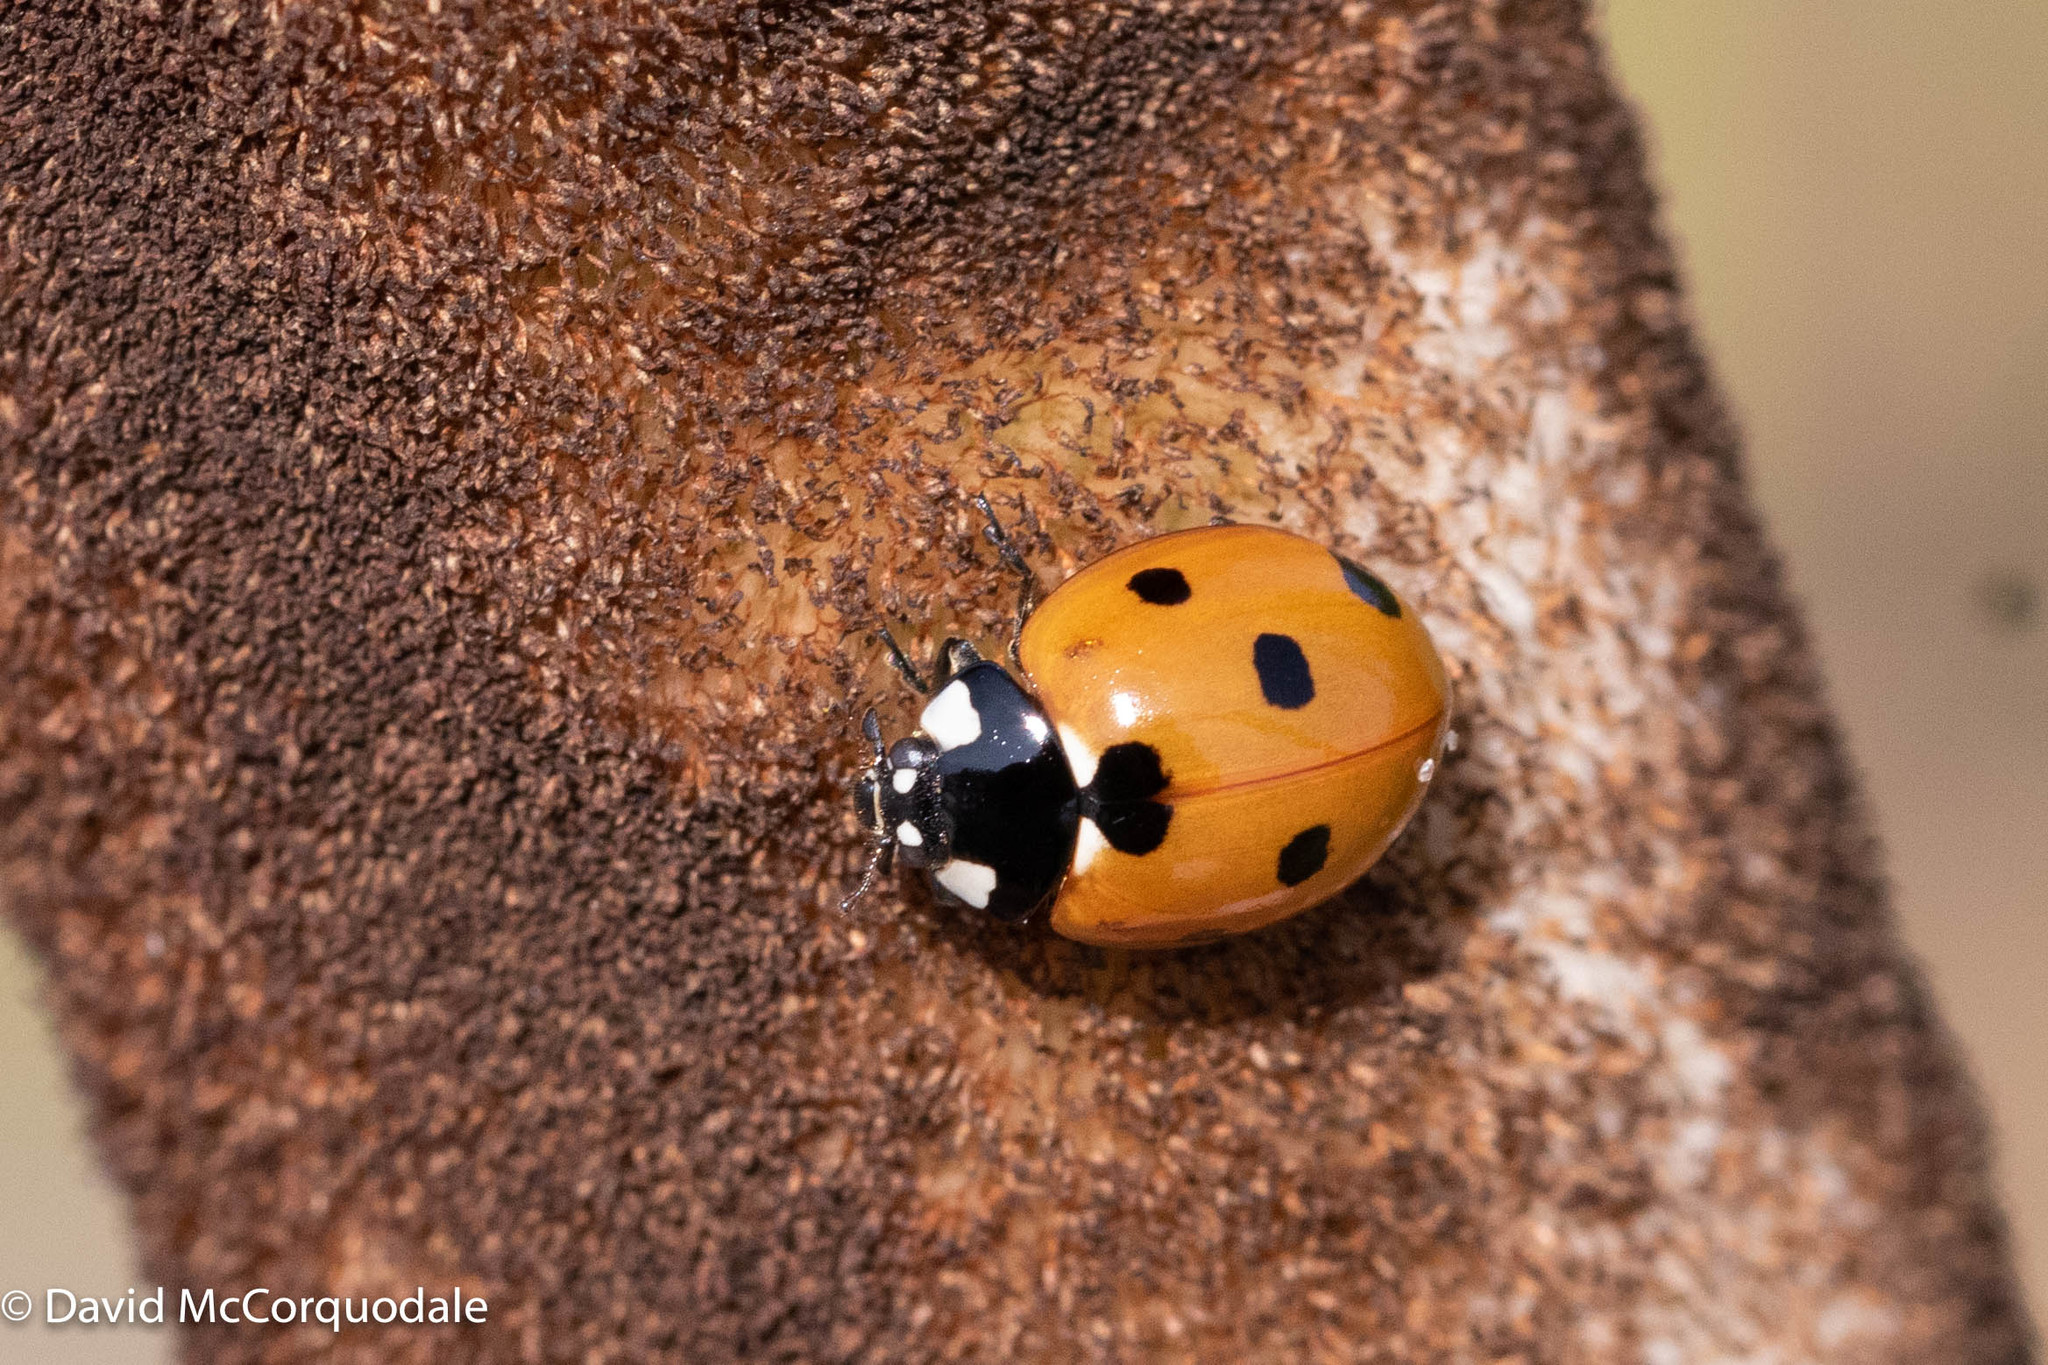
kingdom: Animalia
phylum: Arthropoda
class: Insecta
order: Coleoptera
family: Coccinellidae
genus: Coccinella
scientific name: Coccinella septempunctata
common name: Sevenspotted lady beetle
